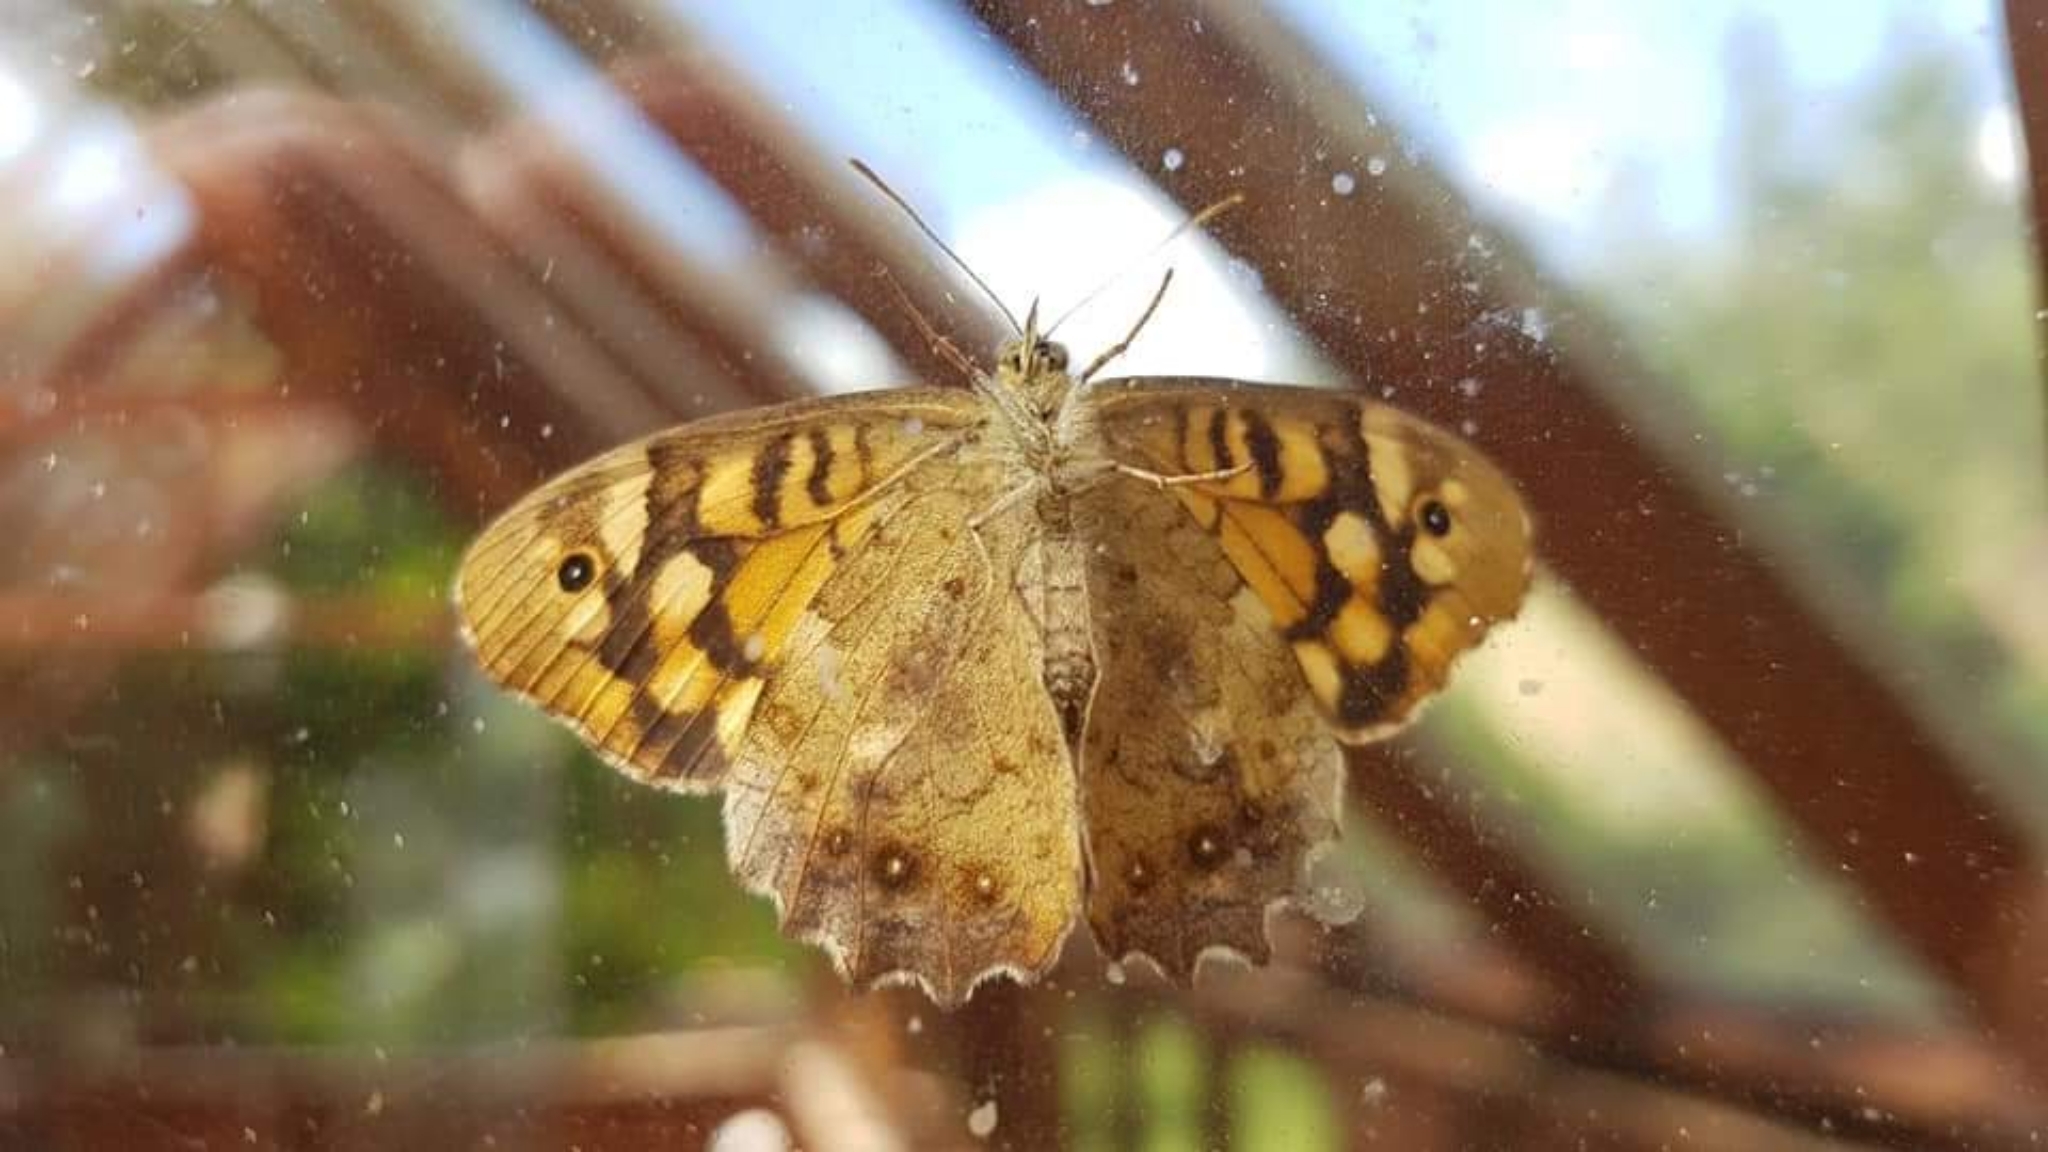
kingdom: Animalia
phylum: Arthropoda
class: Insecta
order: Lepidoptera
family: Nymphalidae
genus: Pararge
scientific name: Pararge aegeria
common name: Speckled wood
